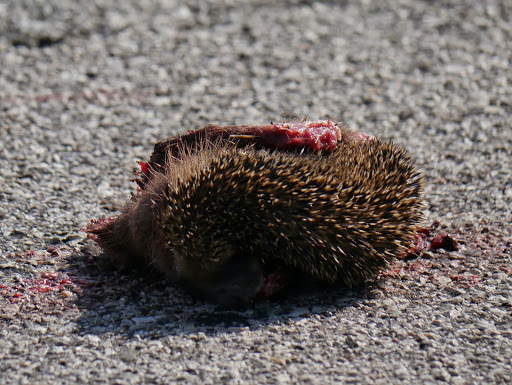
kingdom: Animalia
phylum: Chordata
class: Mammalia
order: Erinaceomorpha
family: Erinaceidae
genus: Erinaceus
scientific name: Erinaceus europaeus
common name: West european hedgehog
